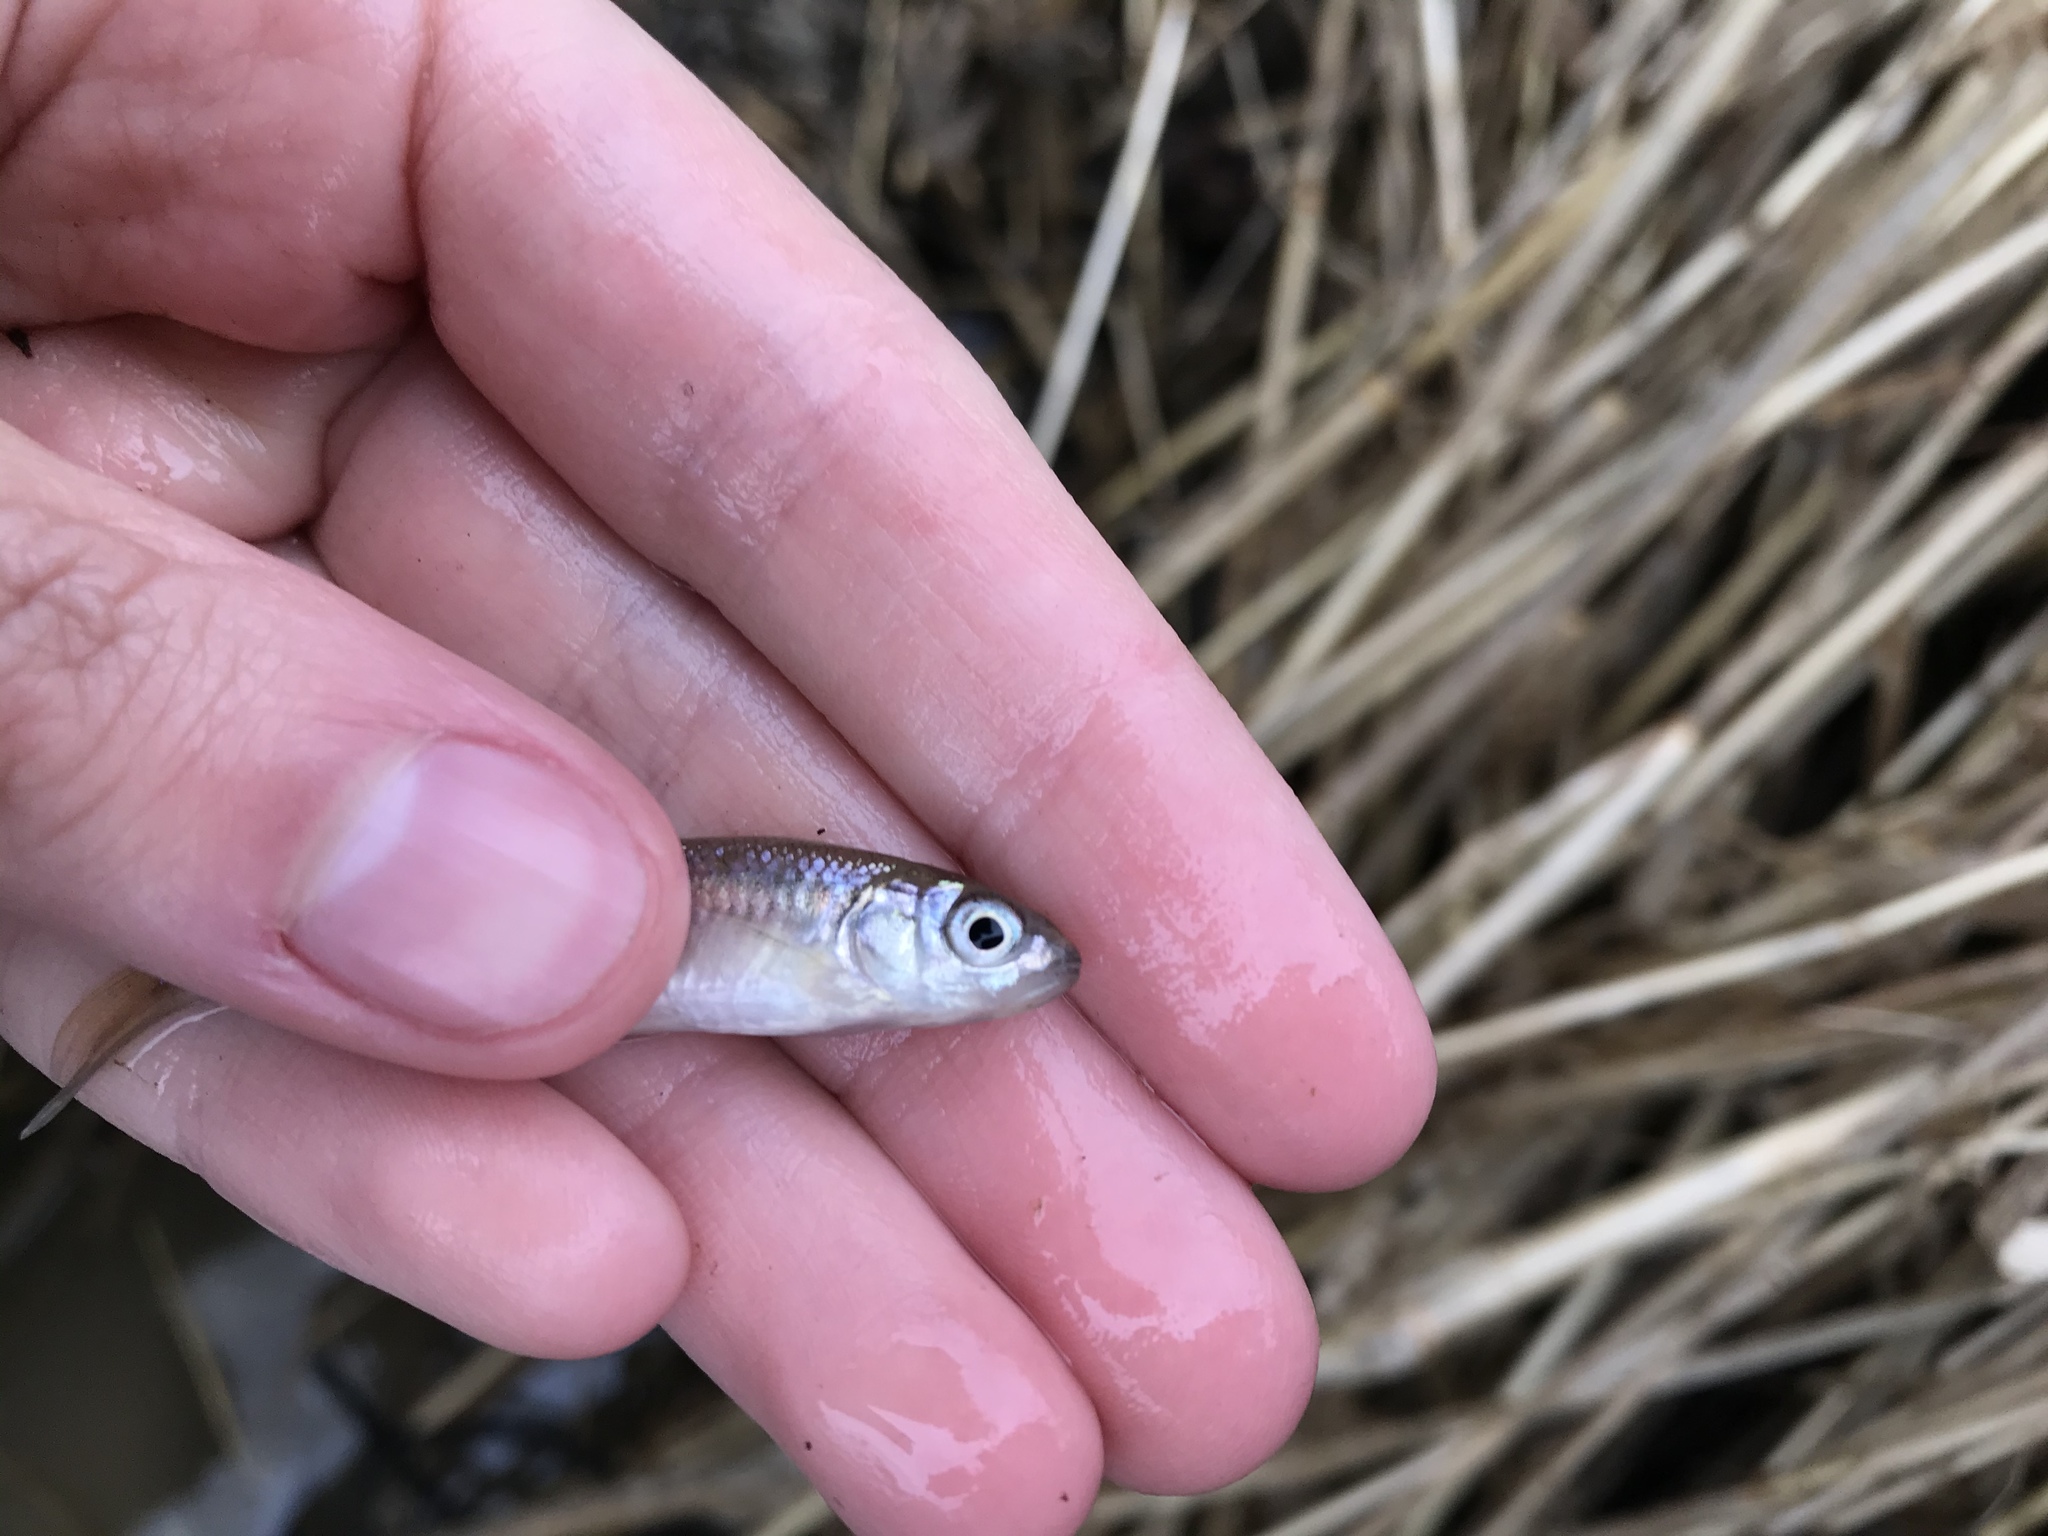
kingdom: Animalia
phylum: Chordata
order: Cypriniformes
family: Cyprinidae
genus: Luxilus
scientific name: Luxilus cornutus
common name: Common shiner
